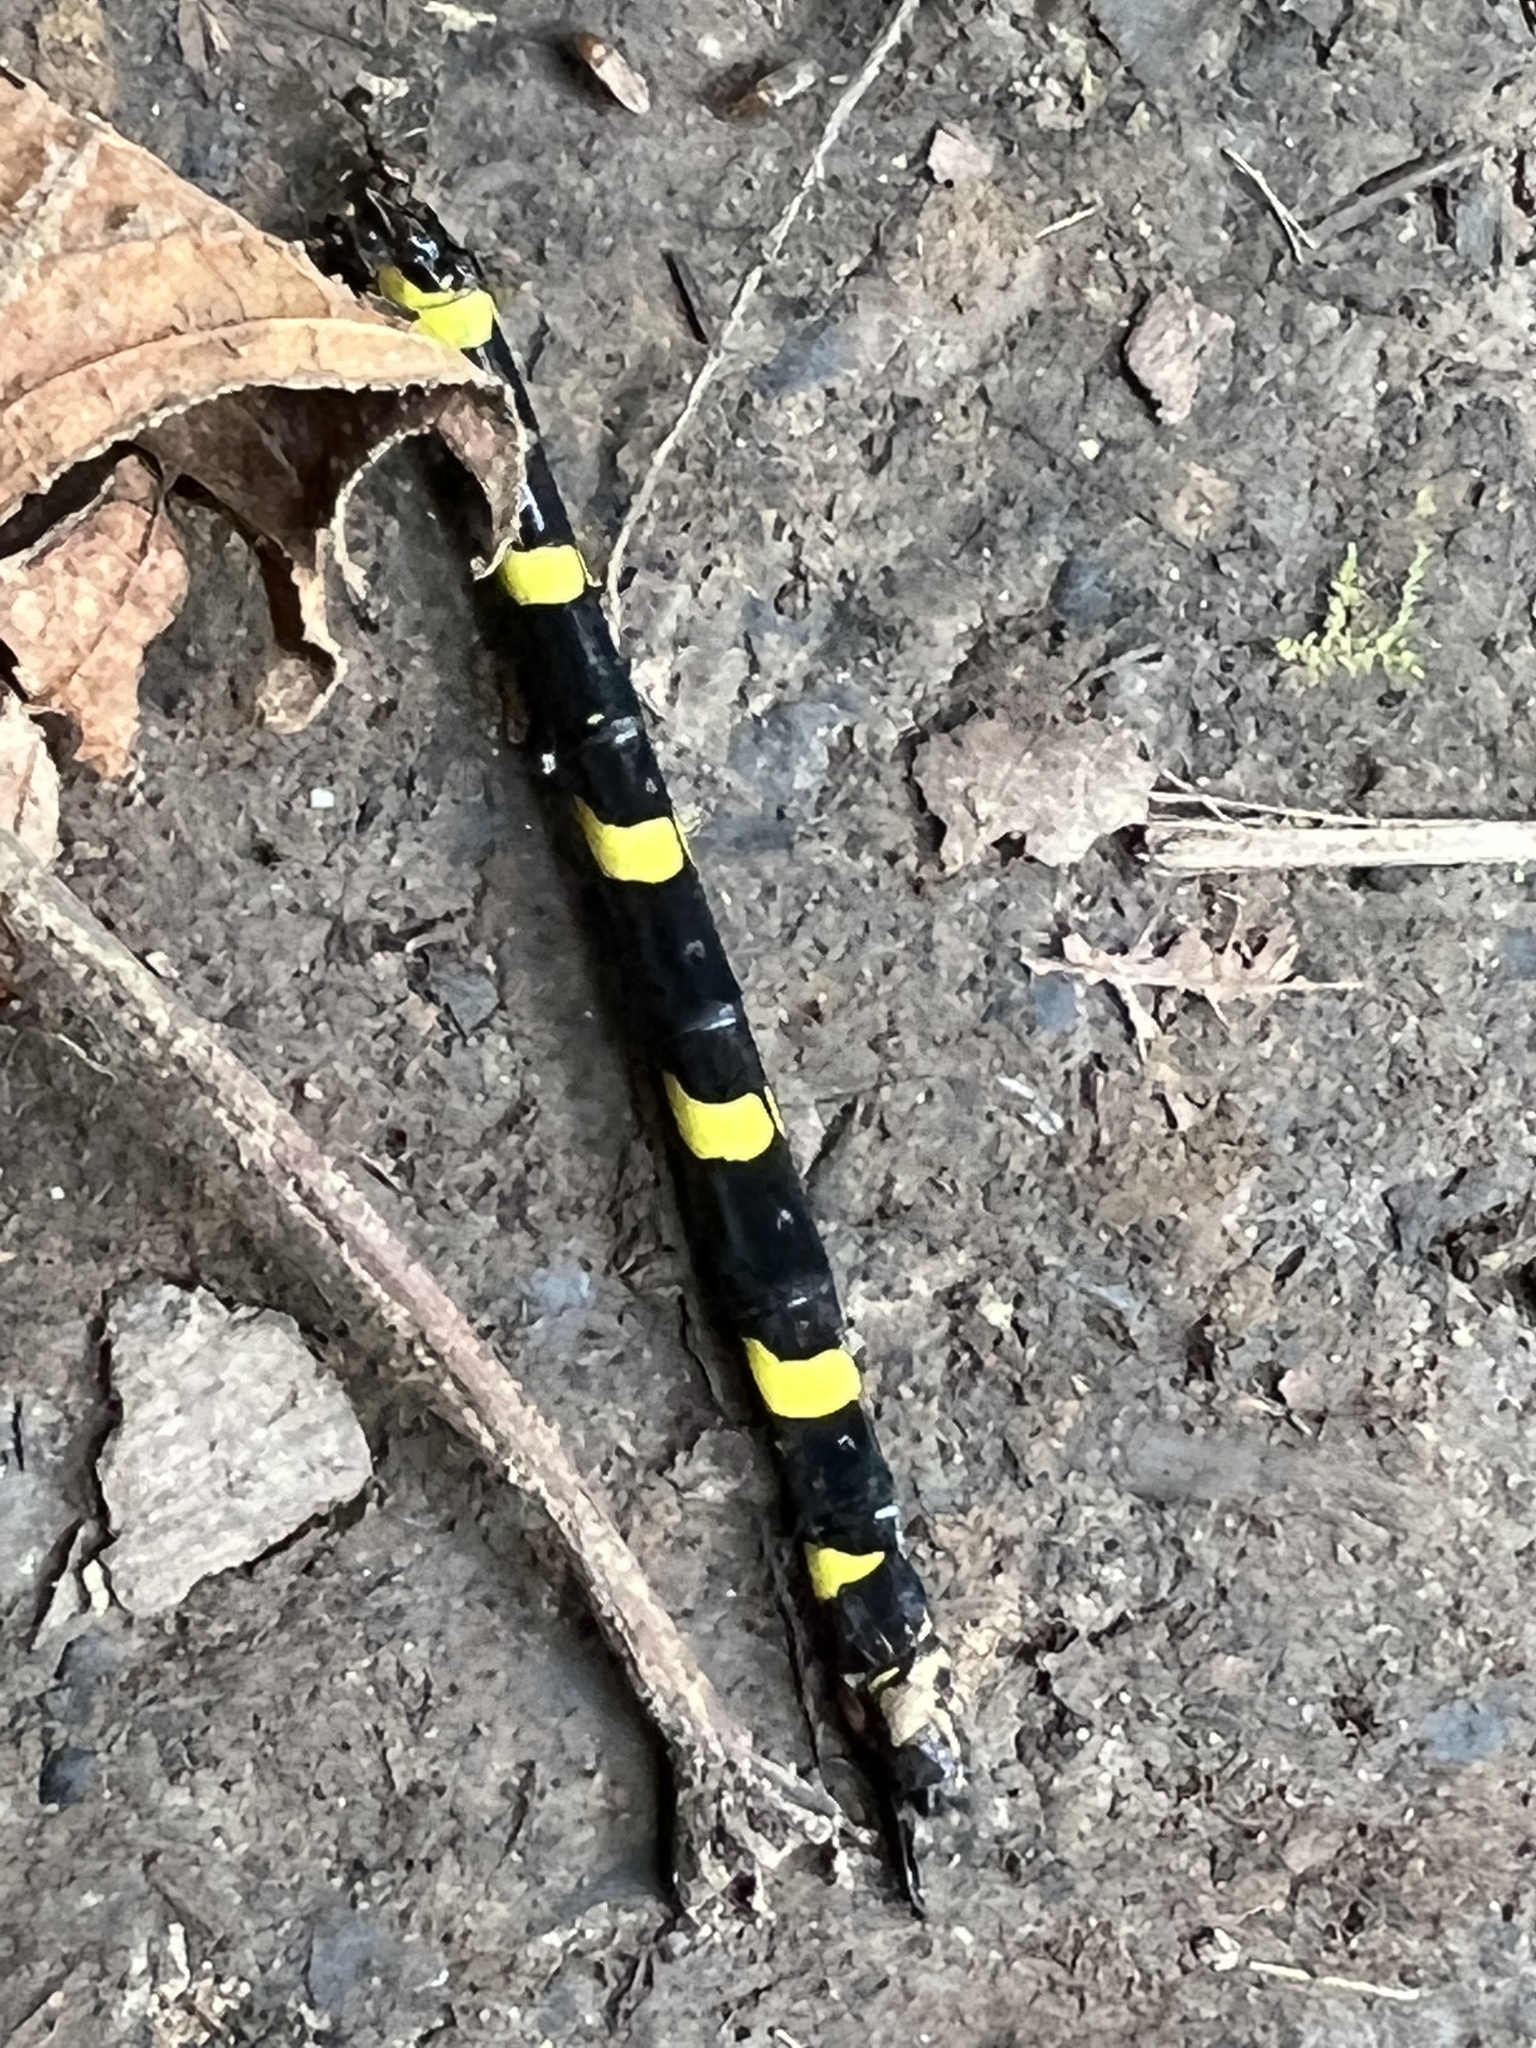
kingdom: Animalia
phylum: Arthropoda
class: Insecta
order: Odonata
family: Cordulegastridae
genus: Cordulegaster
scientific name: Cordulegaster erronea
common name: Tiger spiketail
